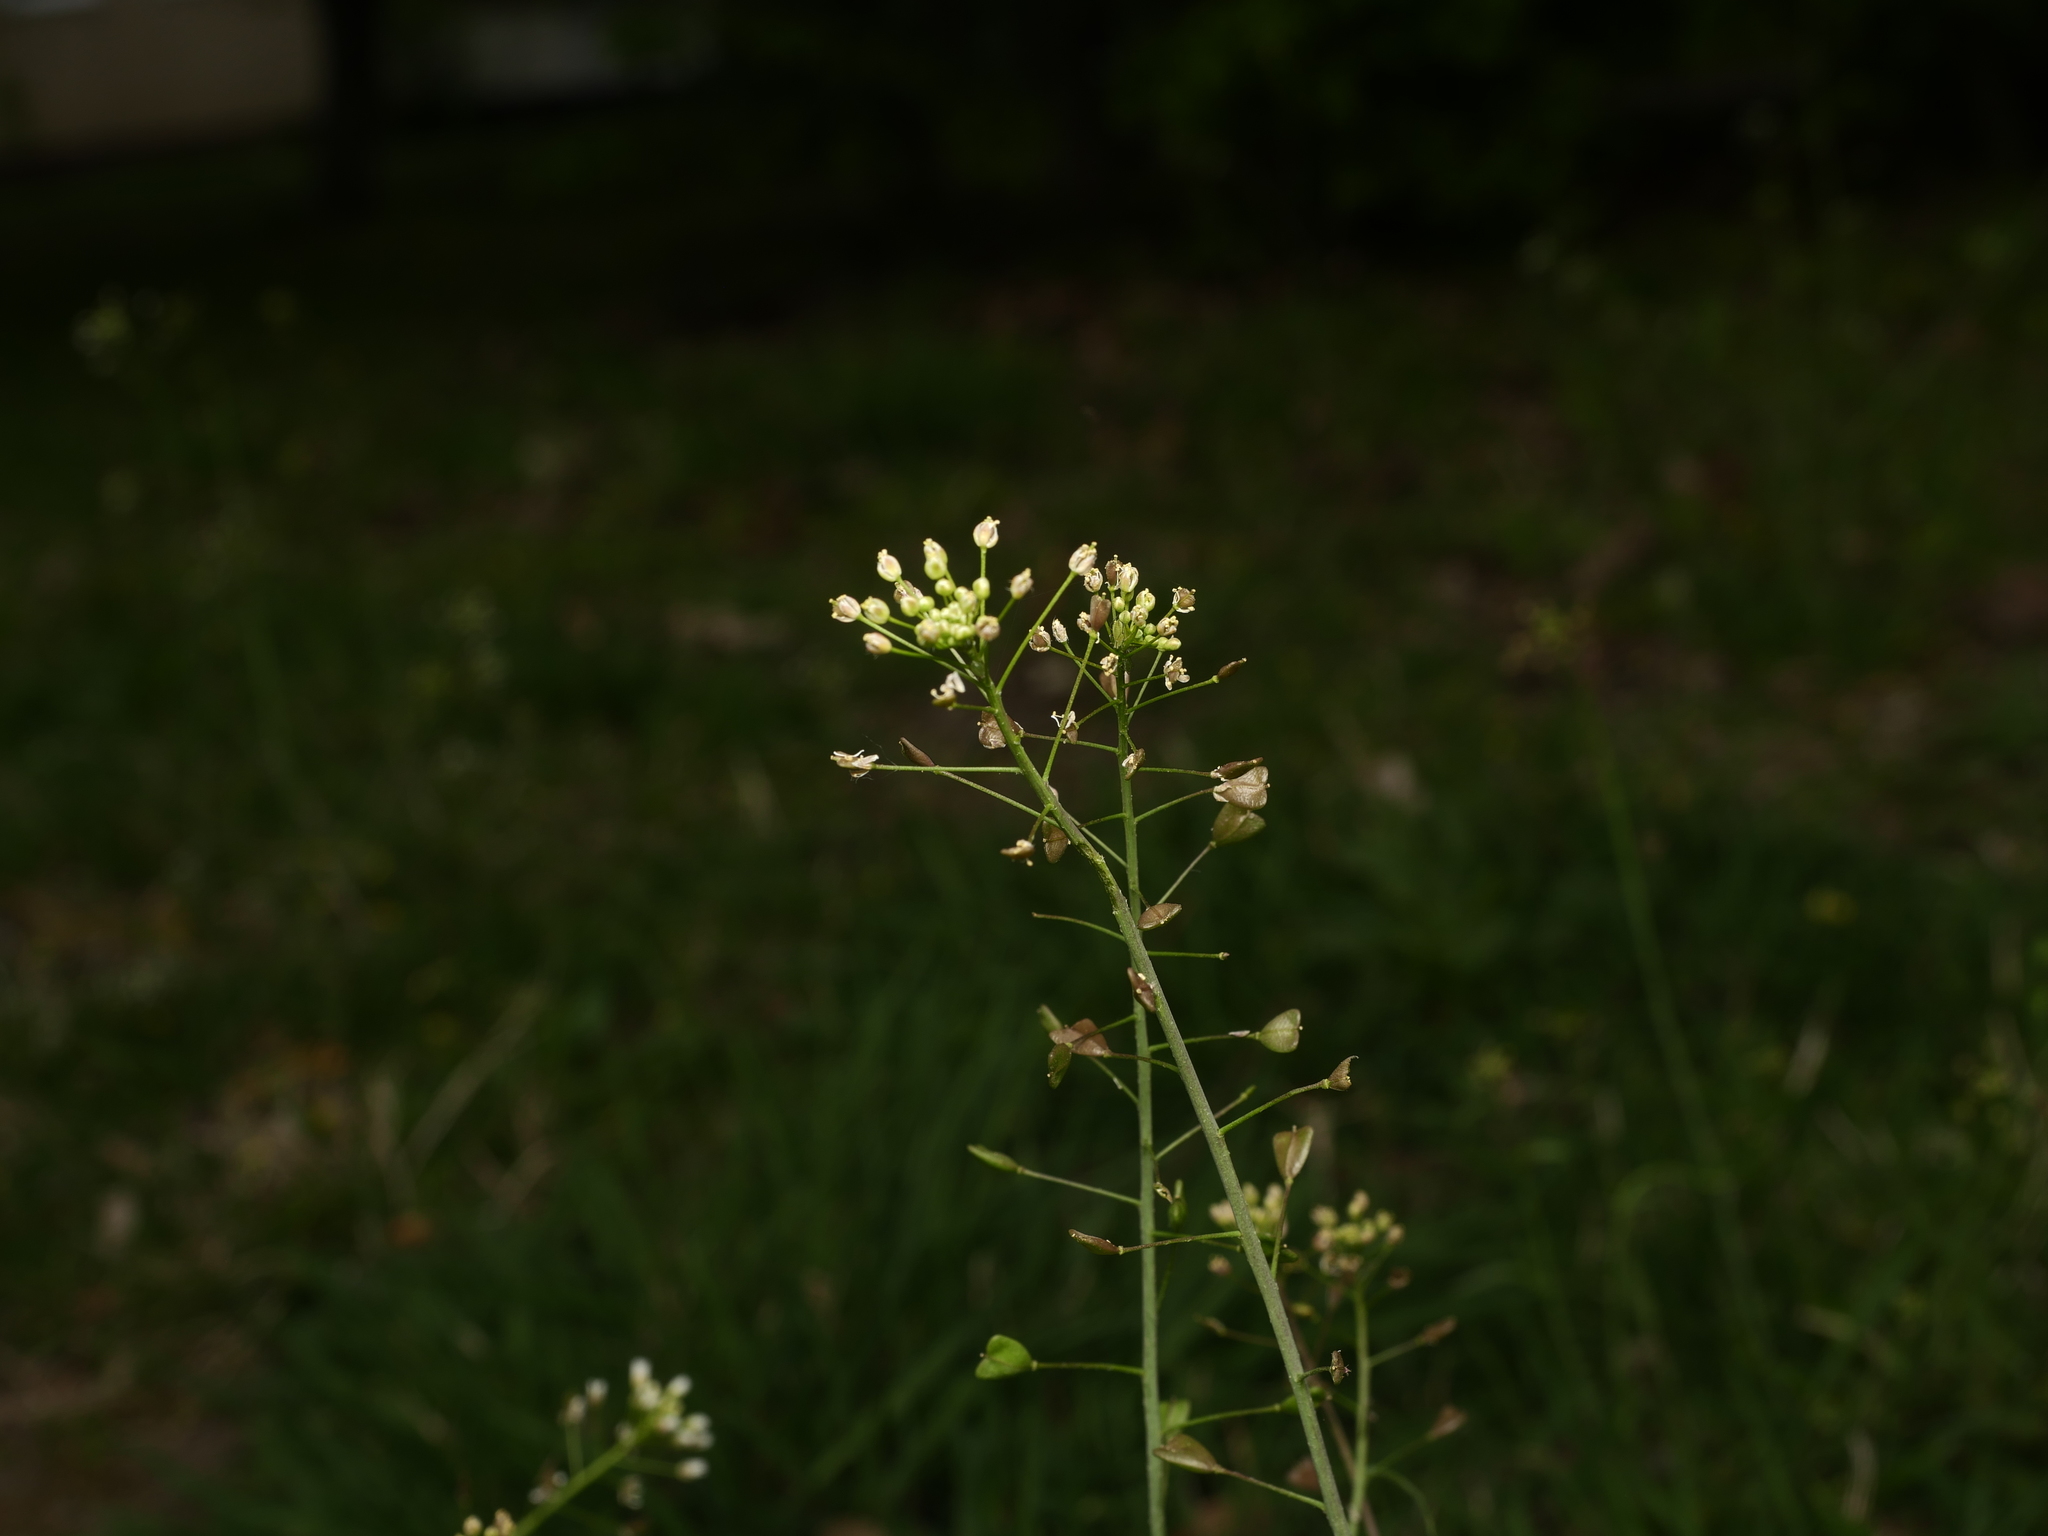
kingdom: Plantae
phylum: Tracheophyta
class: Magnoliopsida
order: Brassicales
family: Brassicaceae
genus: Capsella
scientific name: Capsella bursa-pastoris
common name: Shepherd's purse
